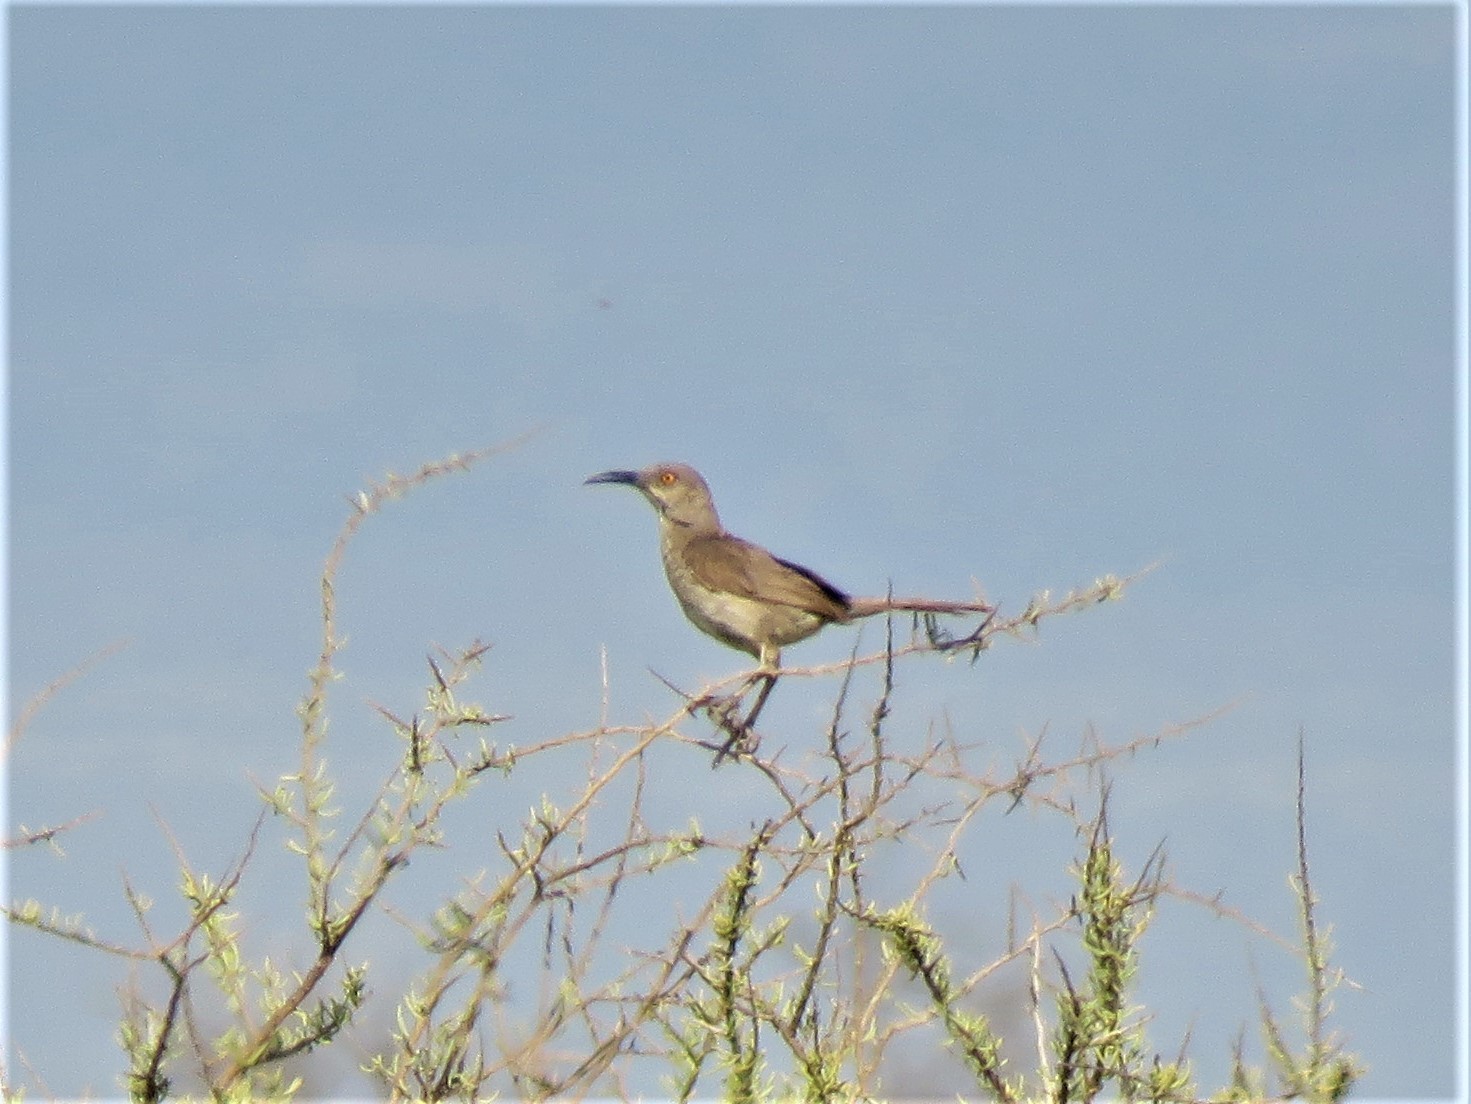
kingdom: Animalia
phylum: Chordata
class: Aves
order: Passeriformes
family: Mimidae
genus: Toxostoma
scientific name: Toxostoma curvirostre
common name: Curve-billed thrasher
